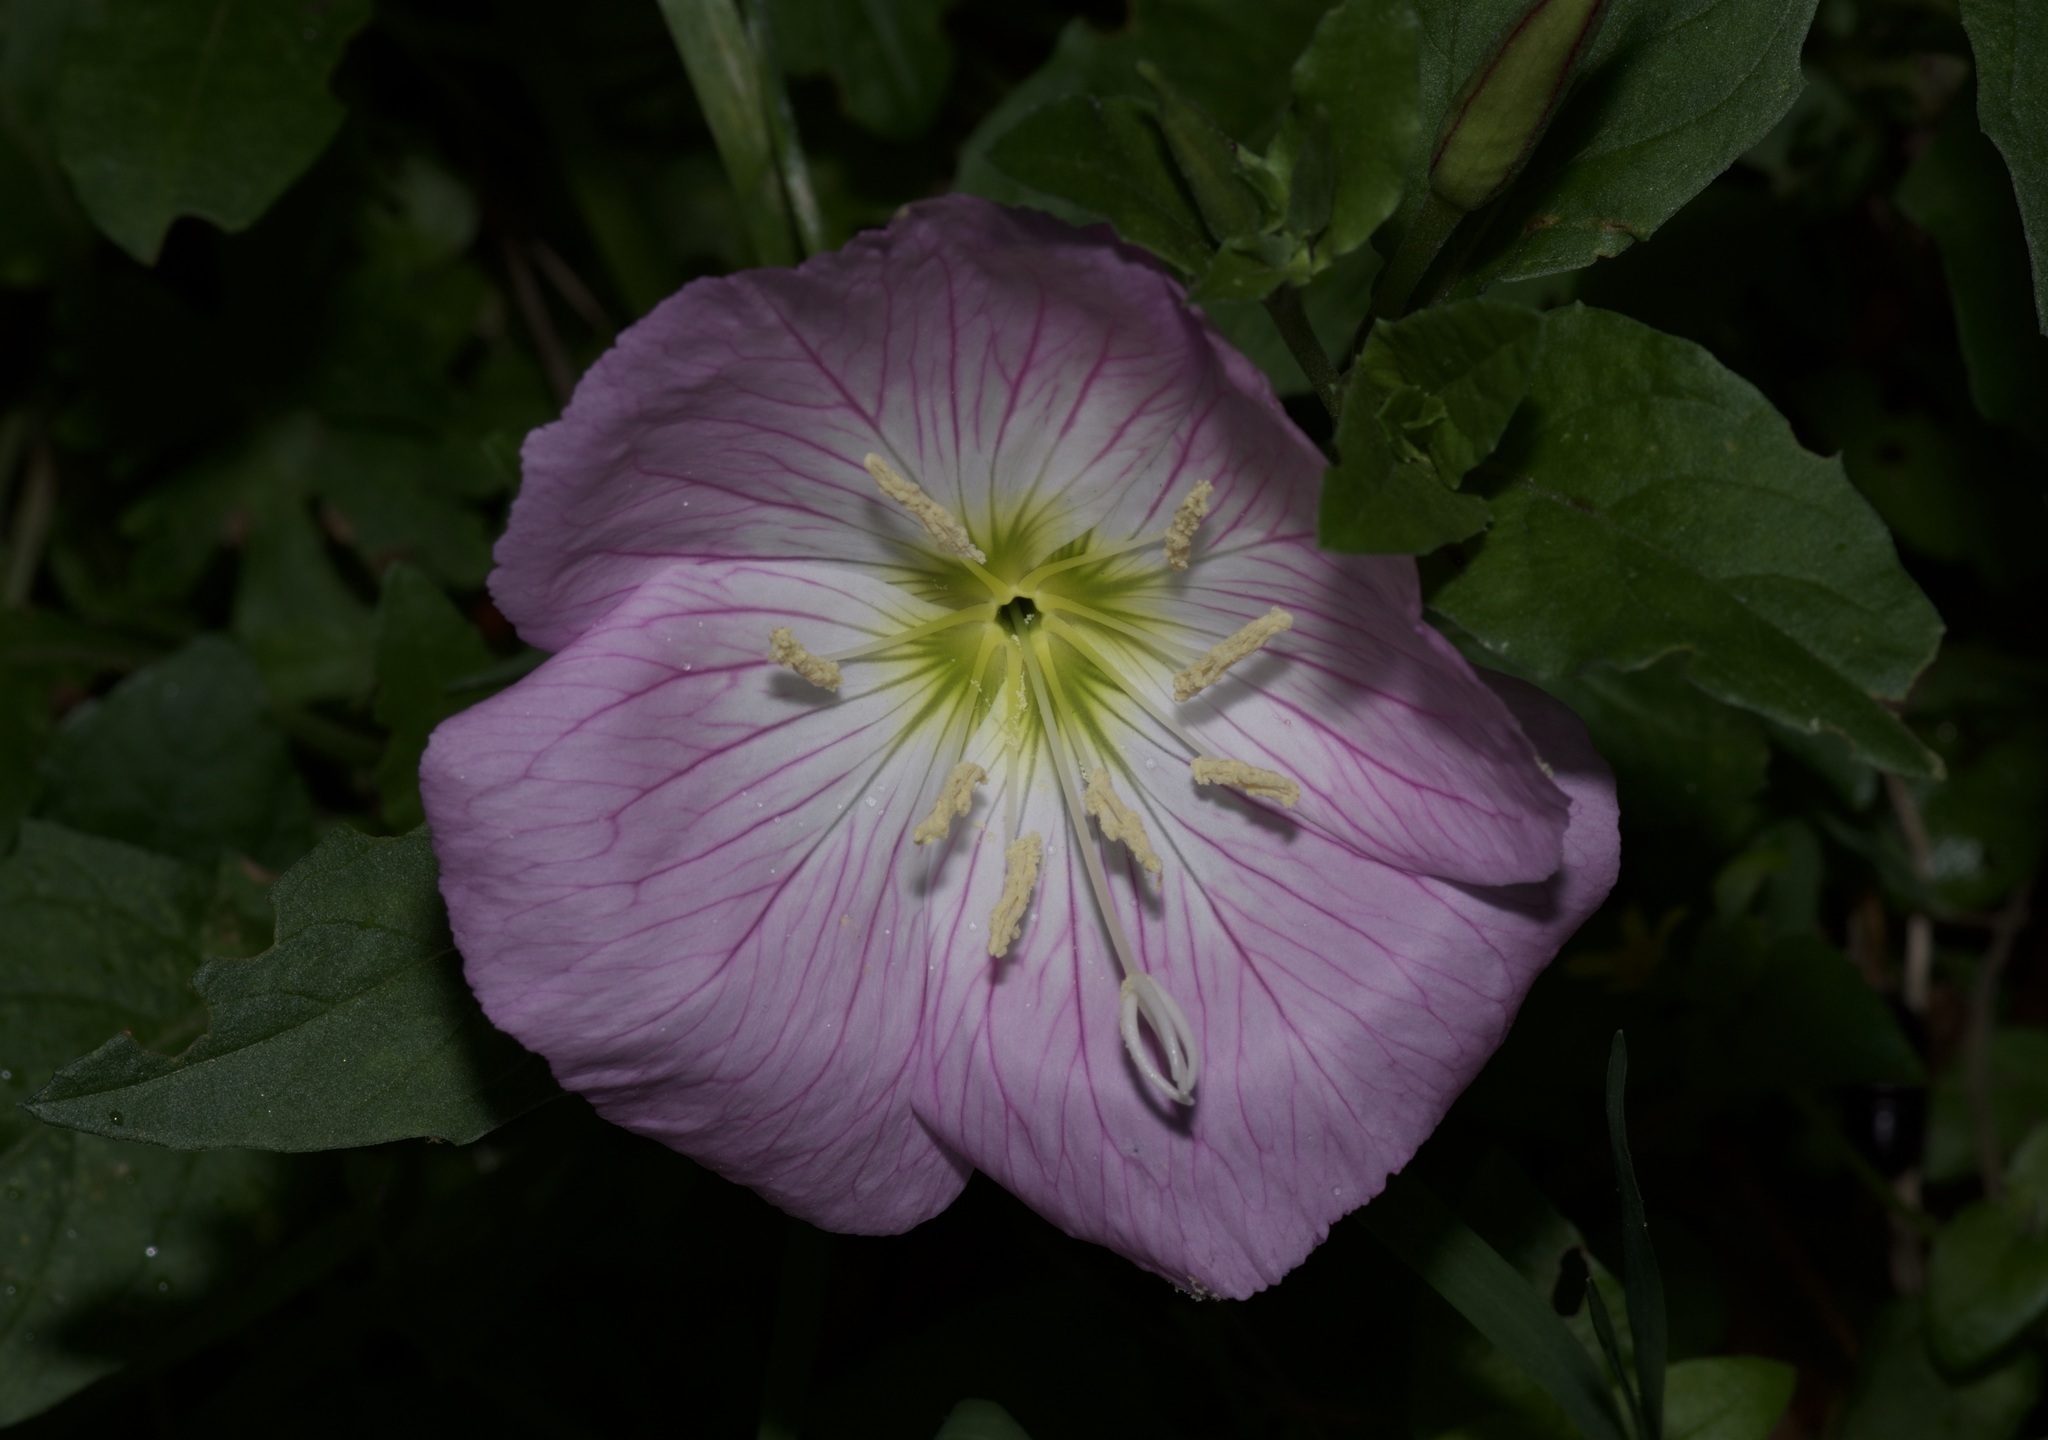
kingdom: Plantae
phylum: Tracheophyta
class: Magnoliopsida
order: Myrtales
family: Onagraceae
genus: Oenothera
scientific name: Oenothera speciosa
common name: White evening-primrose
